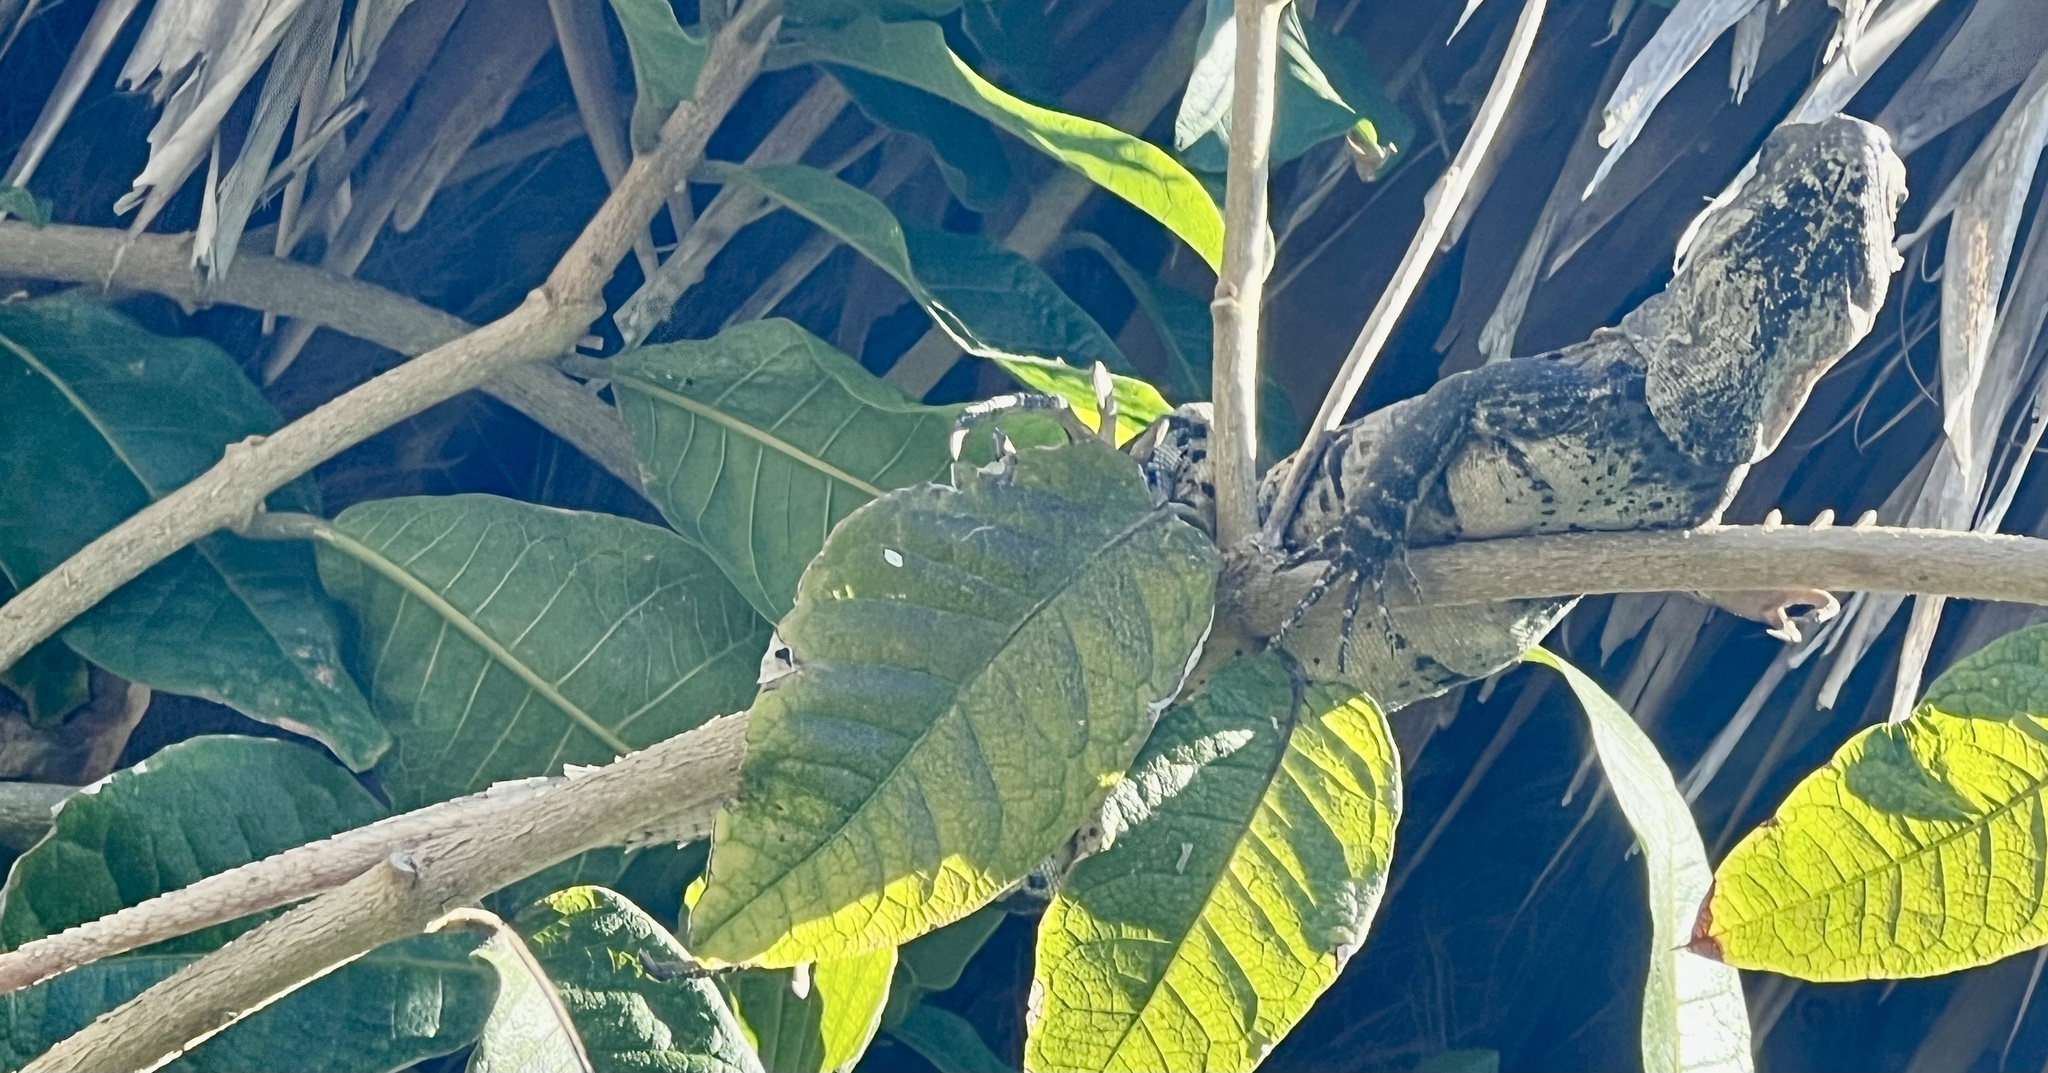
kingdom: Animalia
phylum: Chordata
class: Squamata
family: Iguanidae
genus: Ctenosaura
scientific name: Ctenosaura similis
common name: Black spiny-tailed iguana
